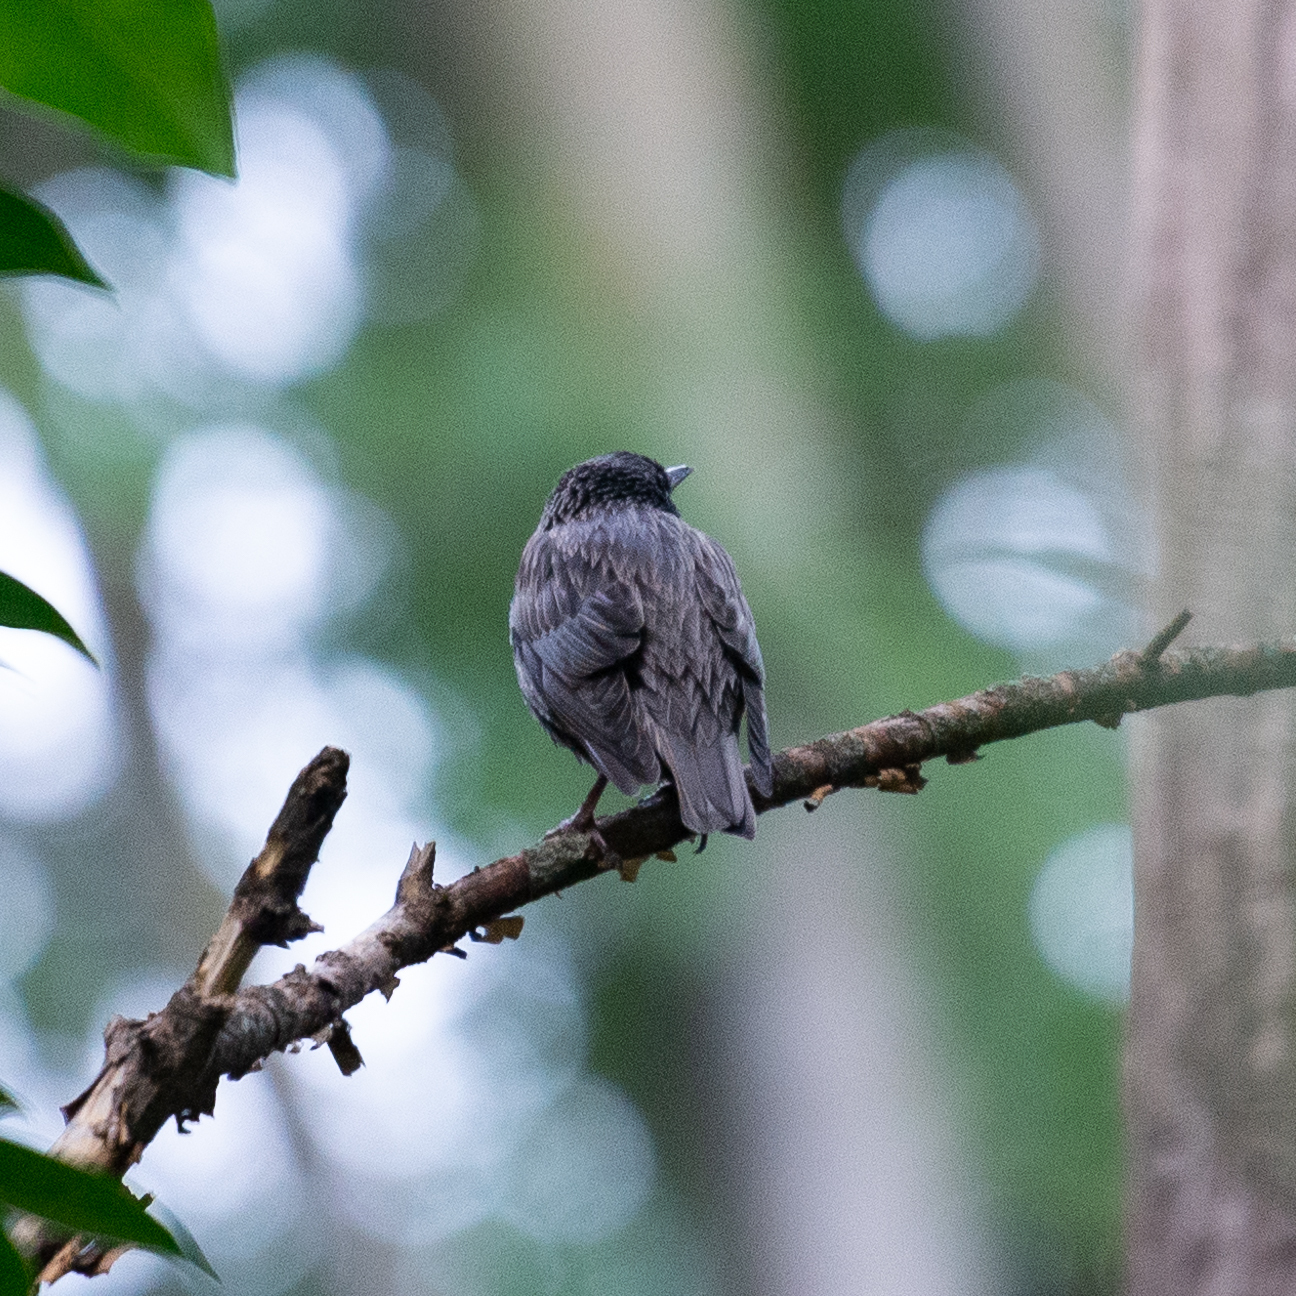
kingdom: Animalia
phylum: Chordata
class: Aves
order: Passeriformes
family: Sturnidae
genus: Sturnus
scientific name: Sturnus unicolor
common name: Spotless starling
